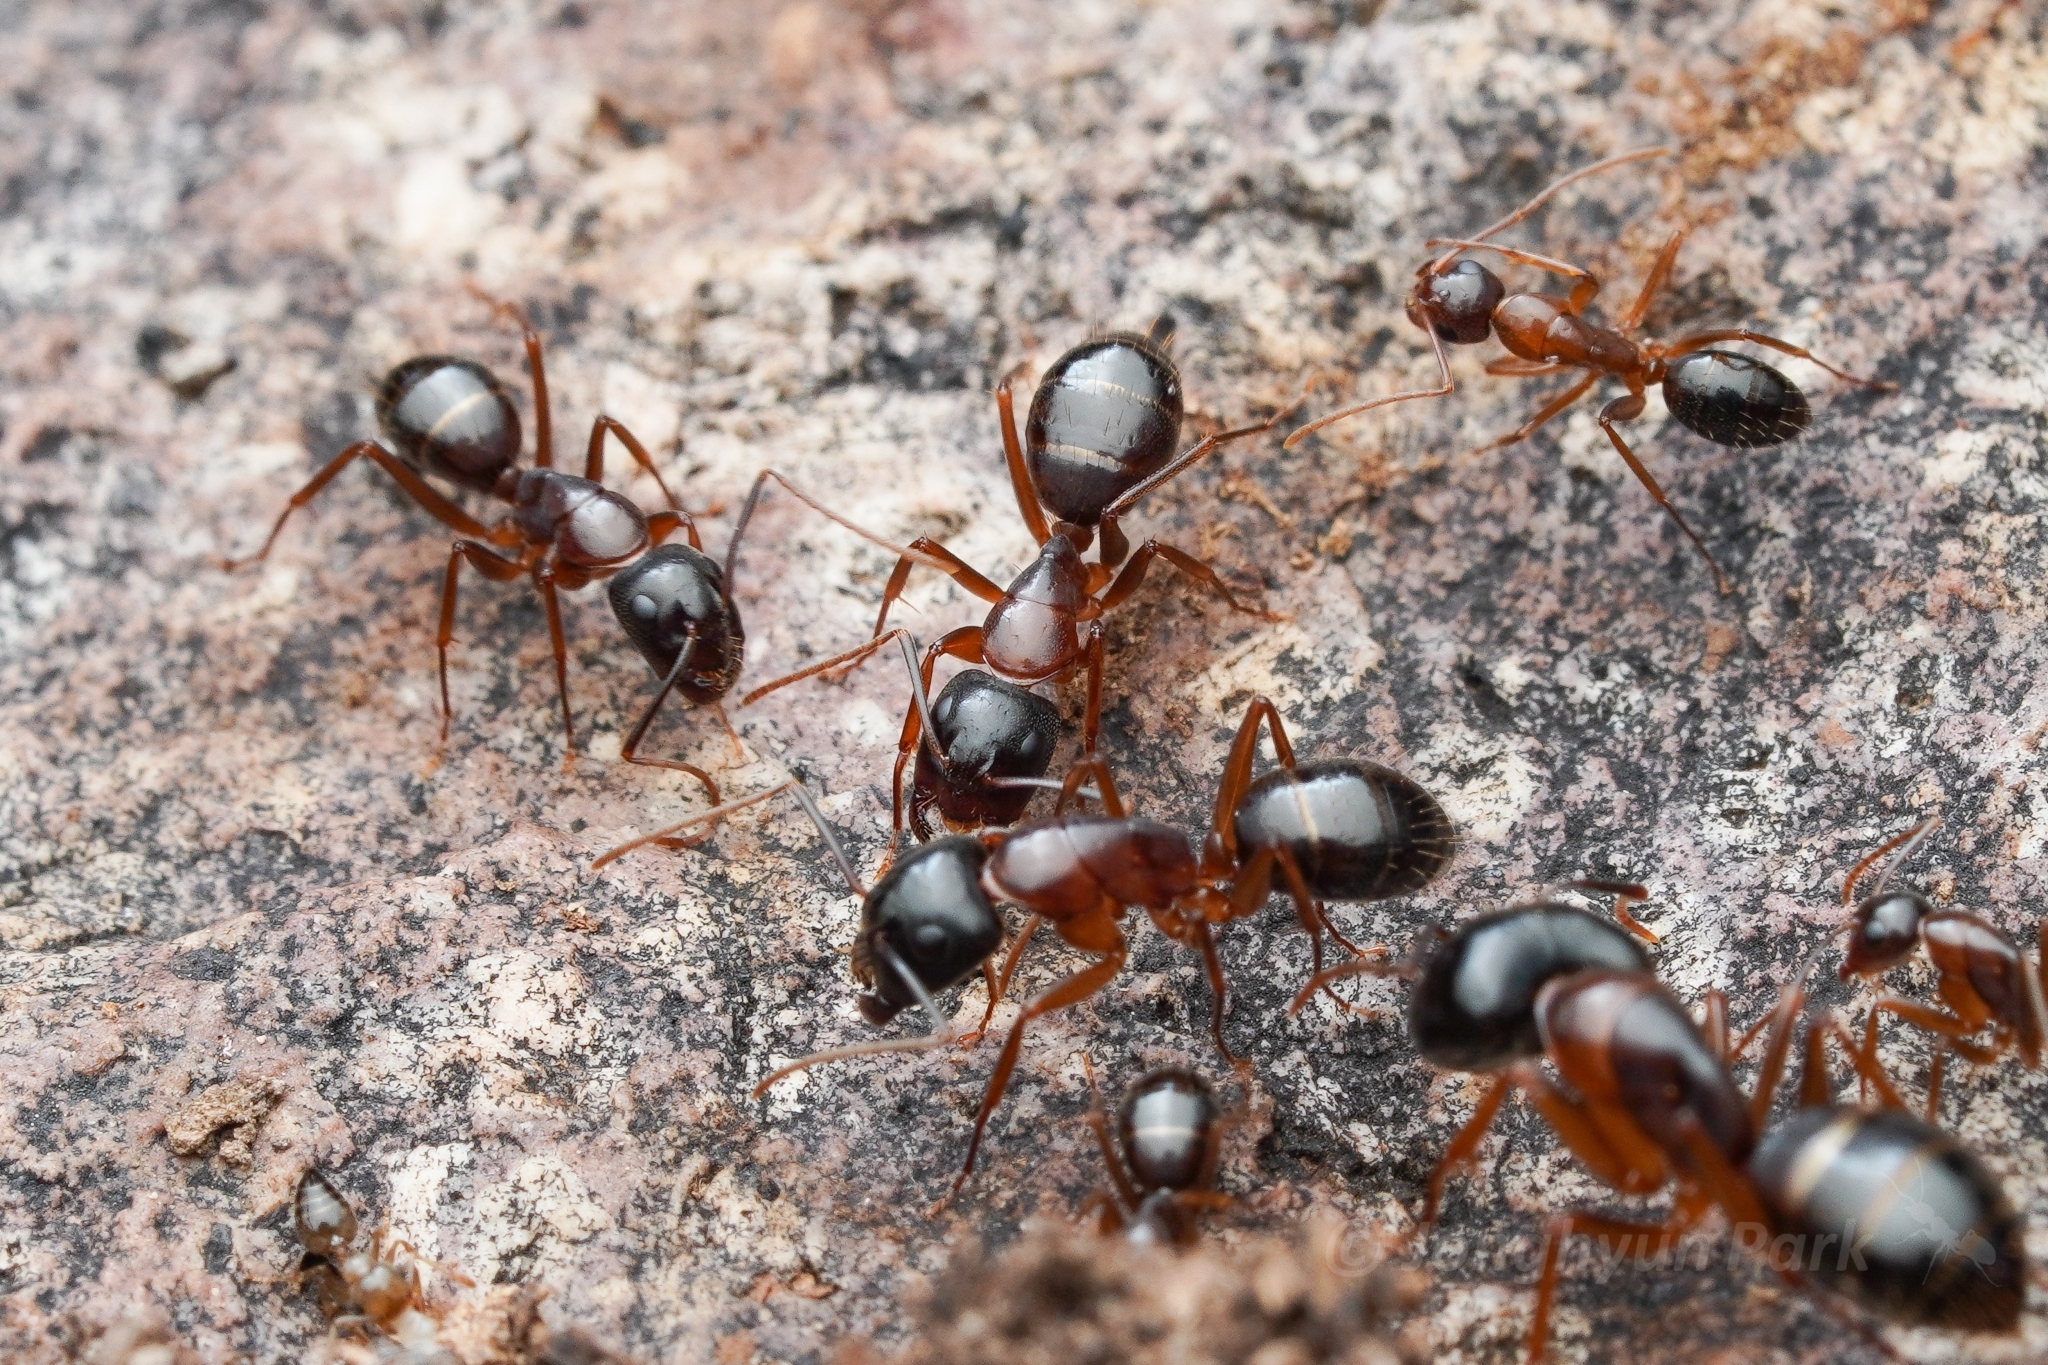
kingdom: Animalia
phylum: Arthropoda
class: Insecta
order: Hymenoptera
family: Formicidae
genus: Camponotus
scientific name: Camponotus sansabeanus
